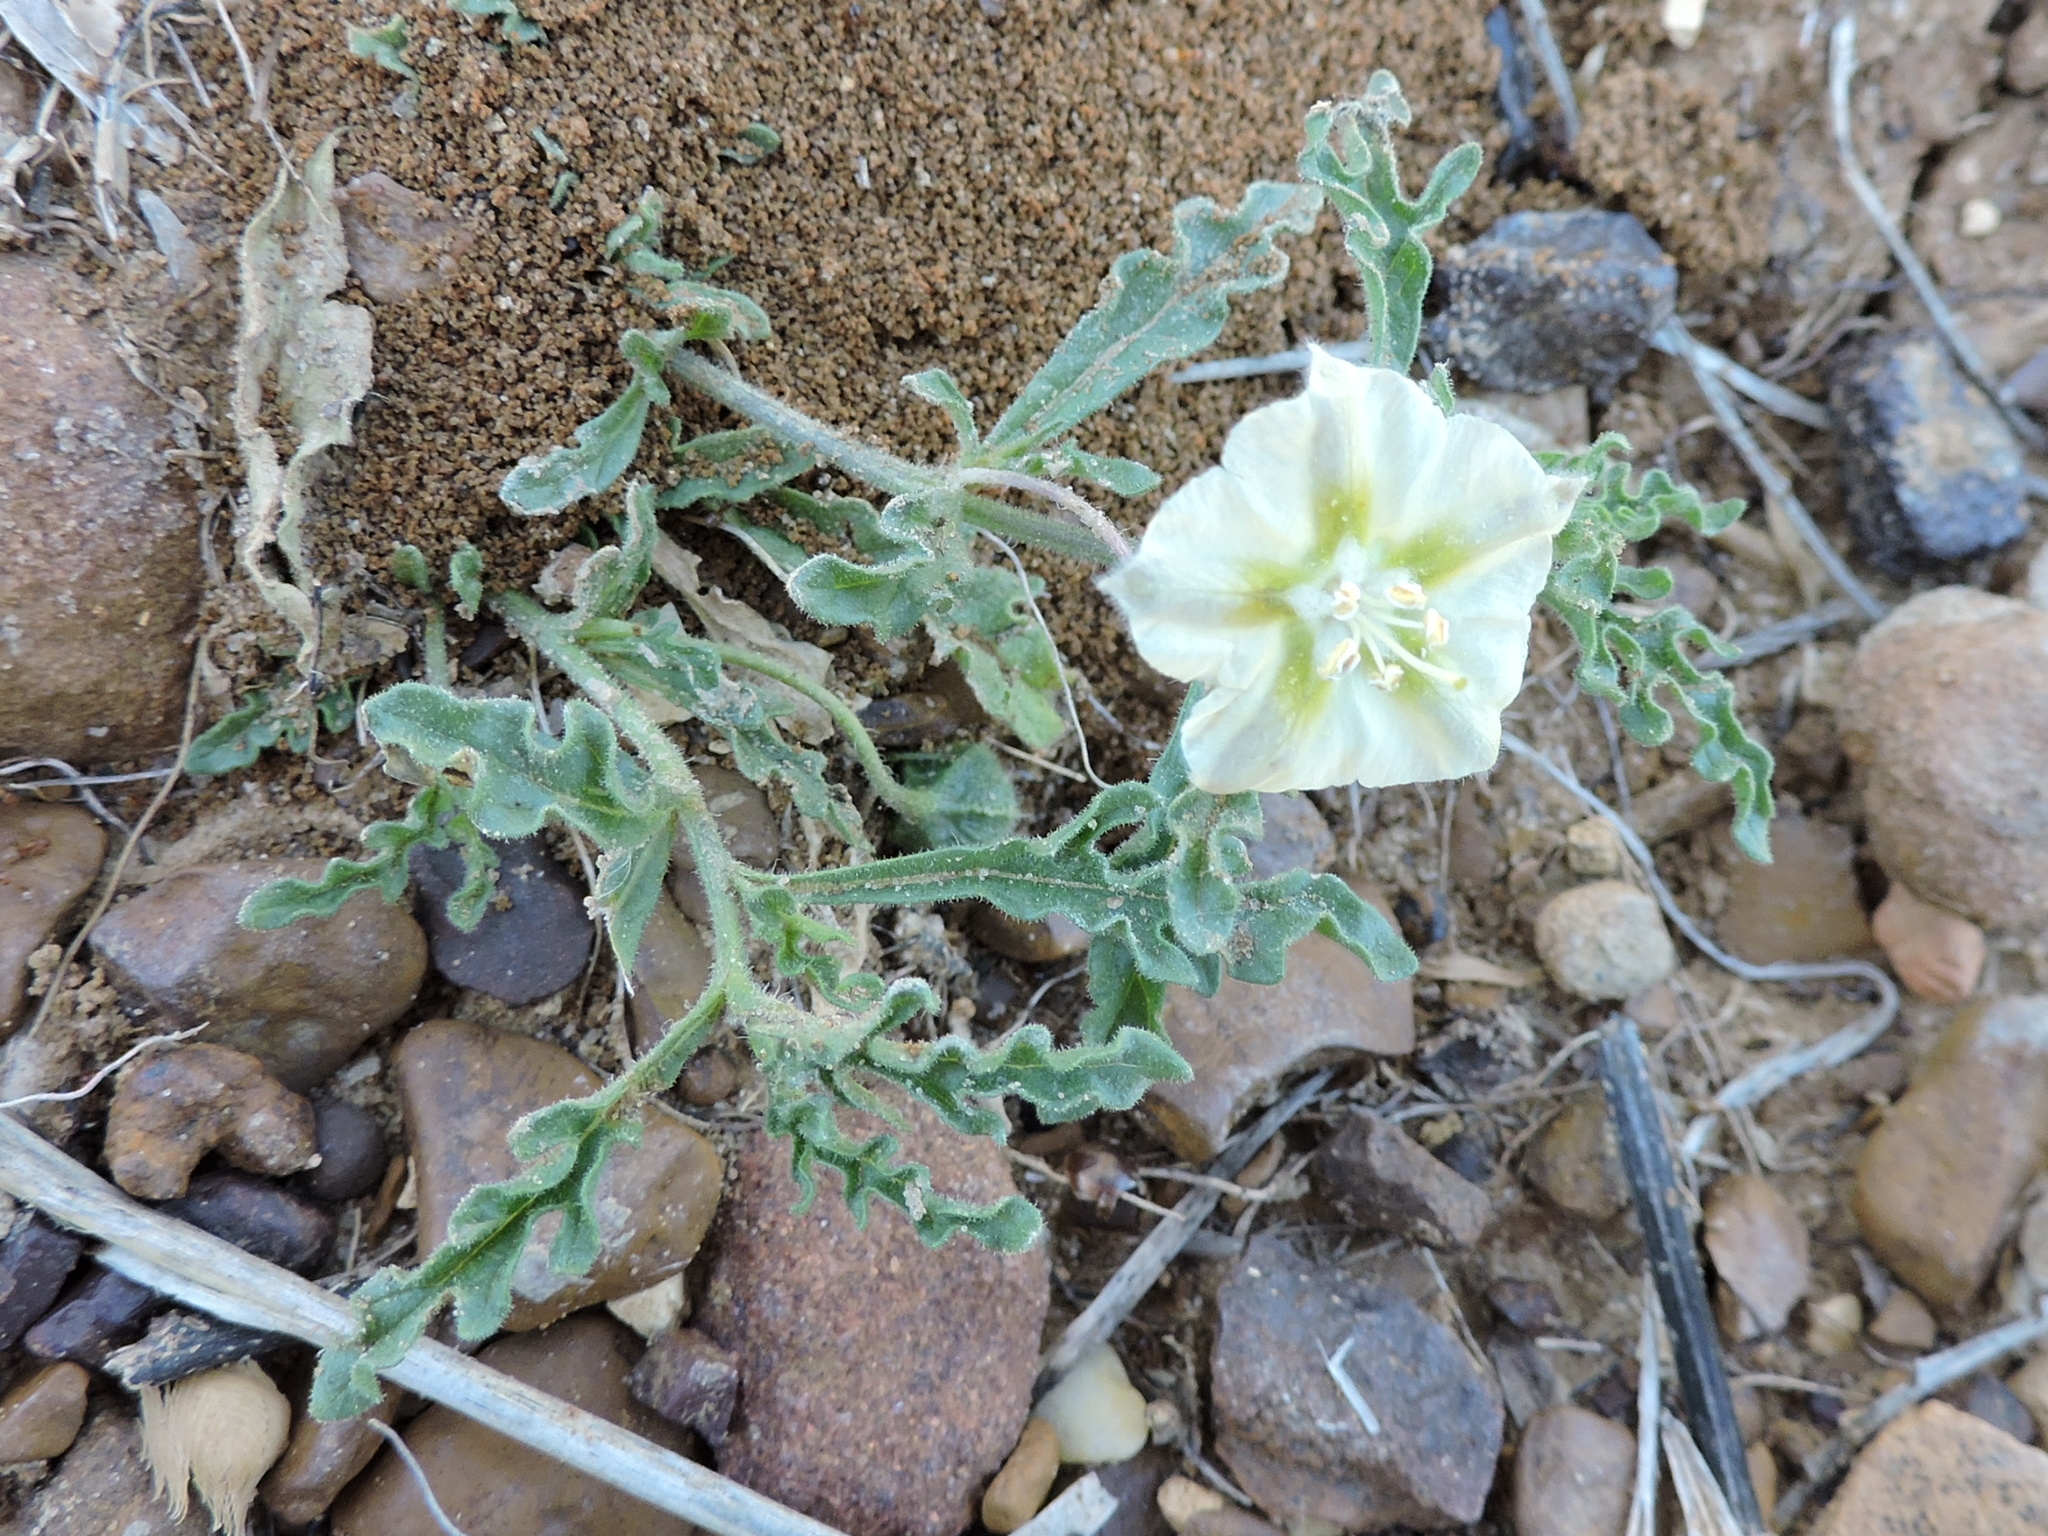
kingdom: Plantae
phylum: Tracheophyta
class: Magnoliopsida
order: Solanales
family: Solanaceae
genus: Chamaesaracha
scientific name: Chamaesaracha coniodes
